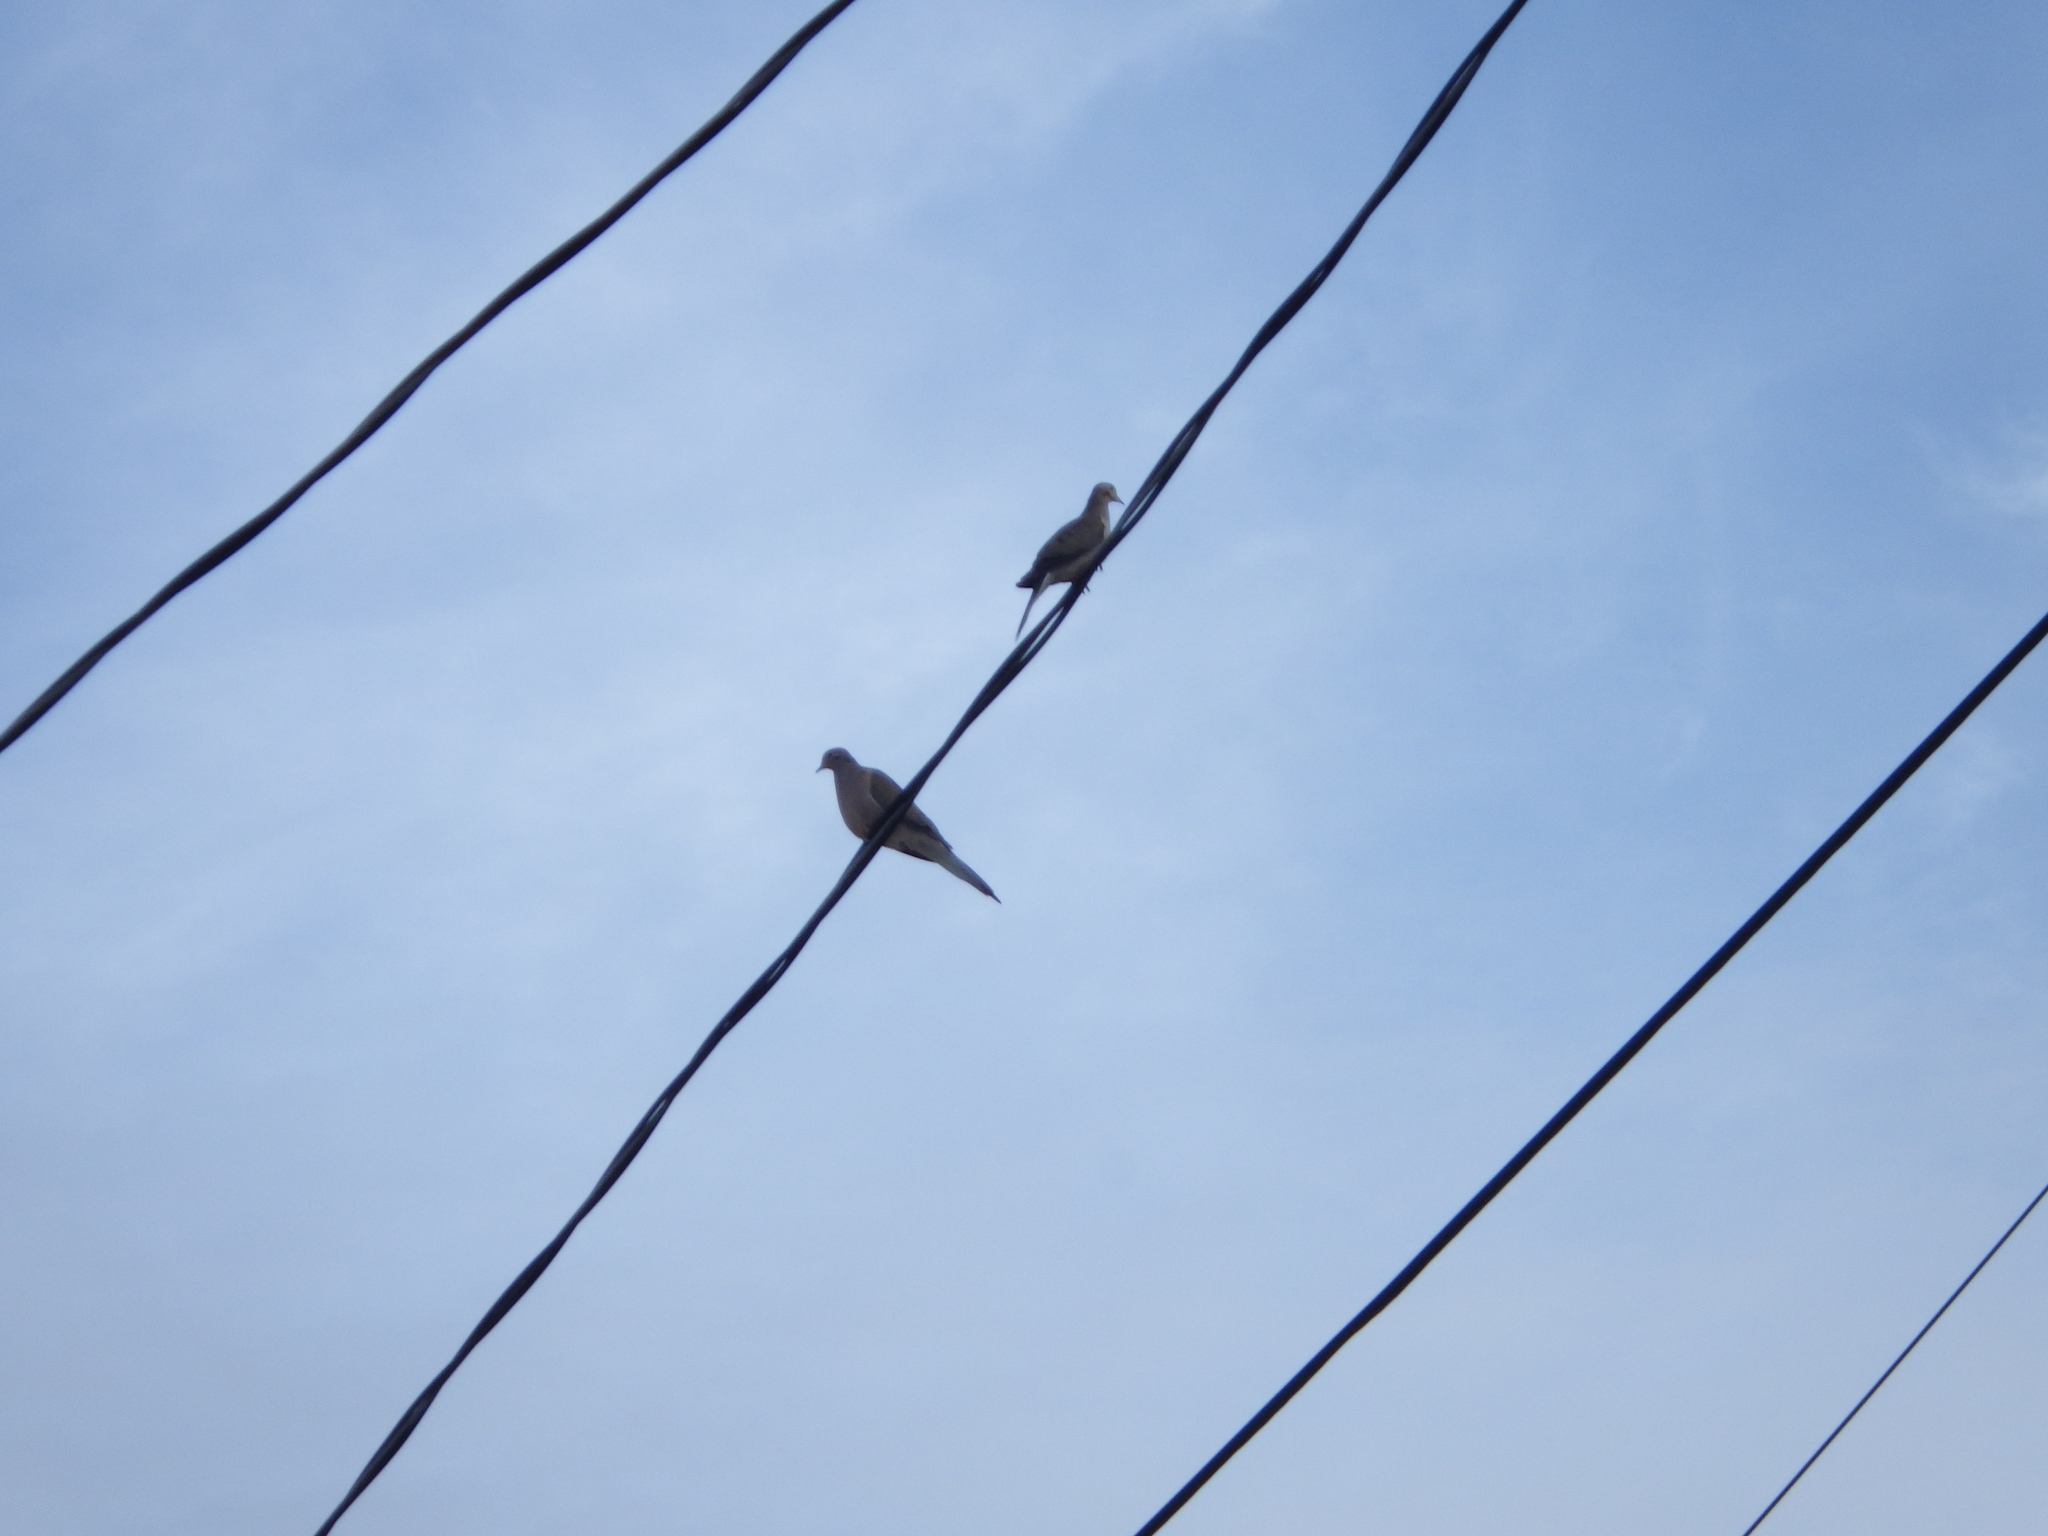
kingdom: Animalia
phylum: Chordata
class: Aves
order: Columbiformes
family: Columbidae
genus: Zenaida
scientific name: Zenaida macroura
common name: Mourning dove
